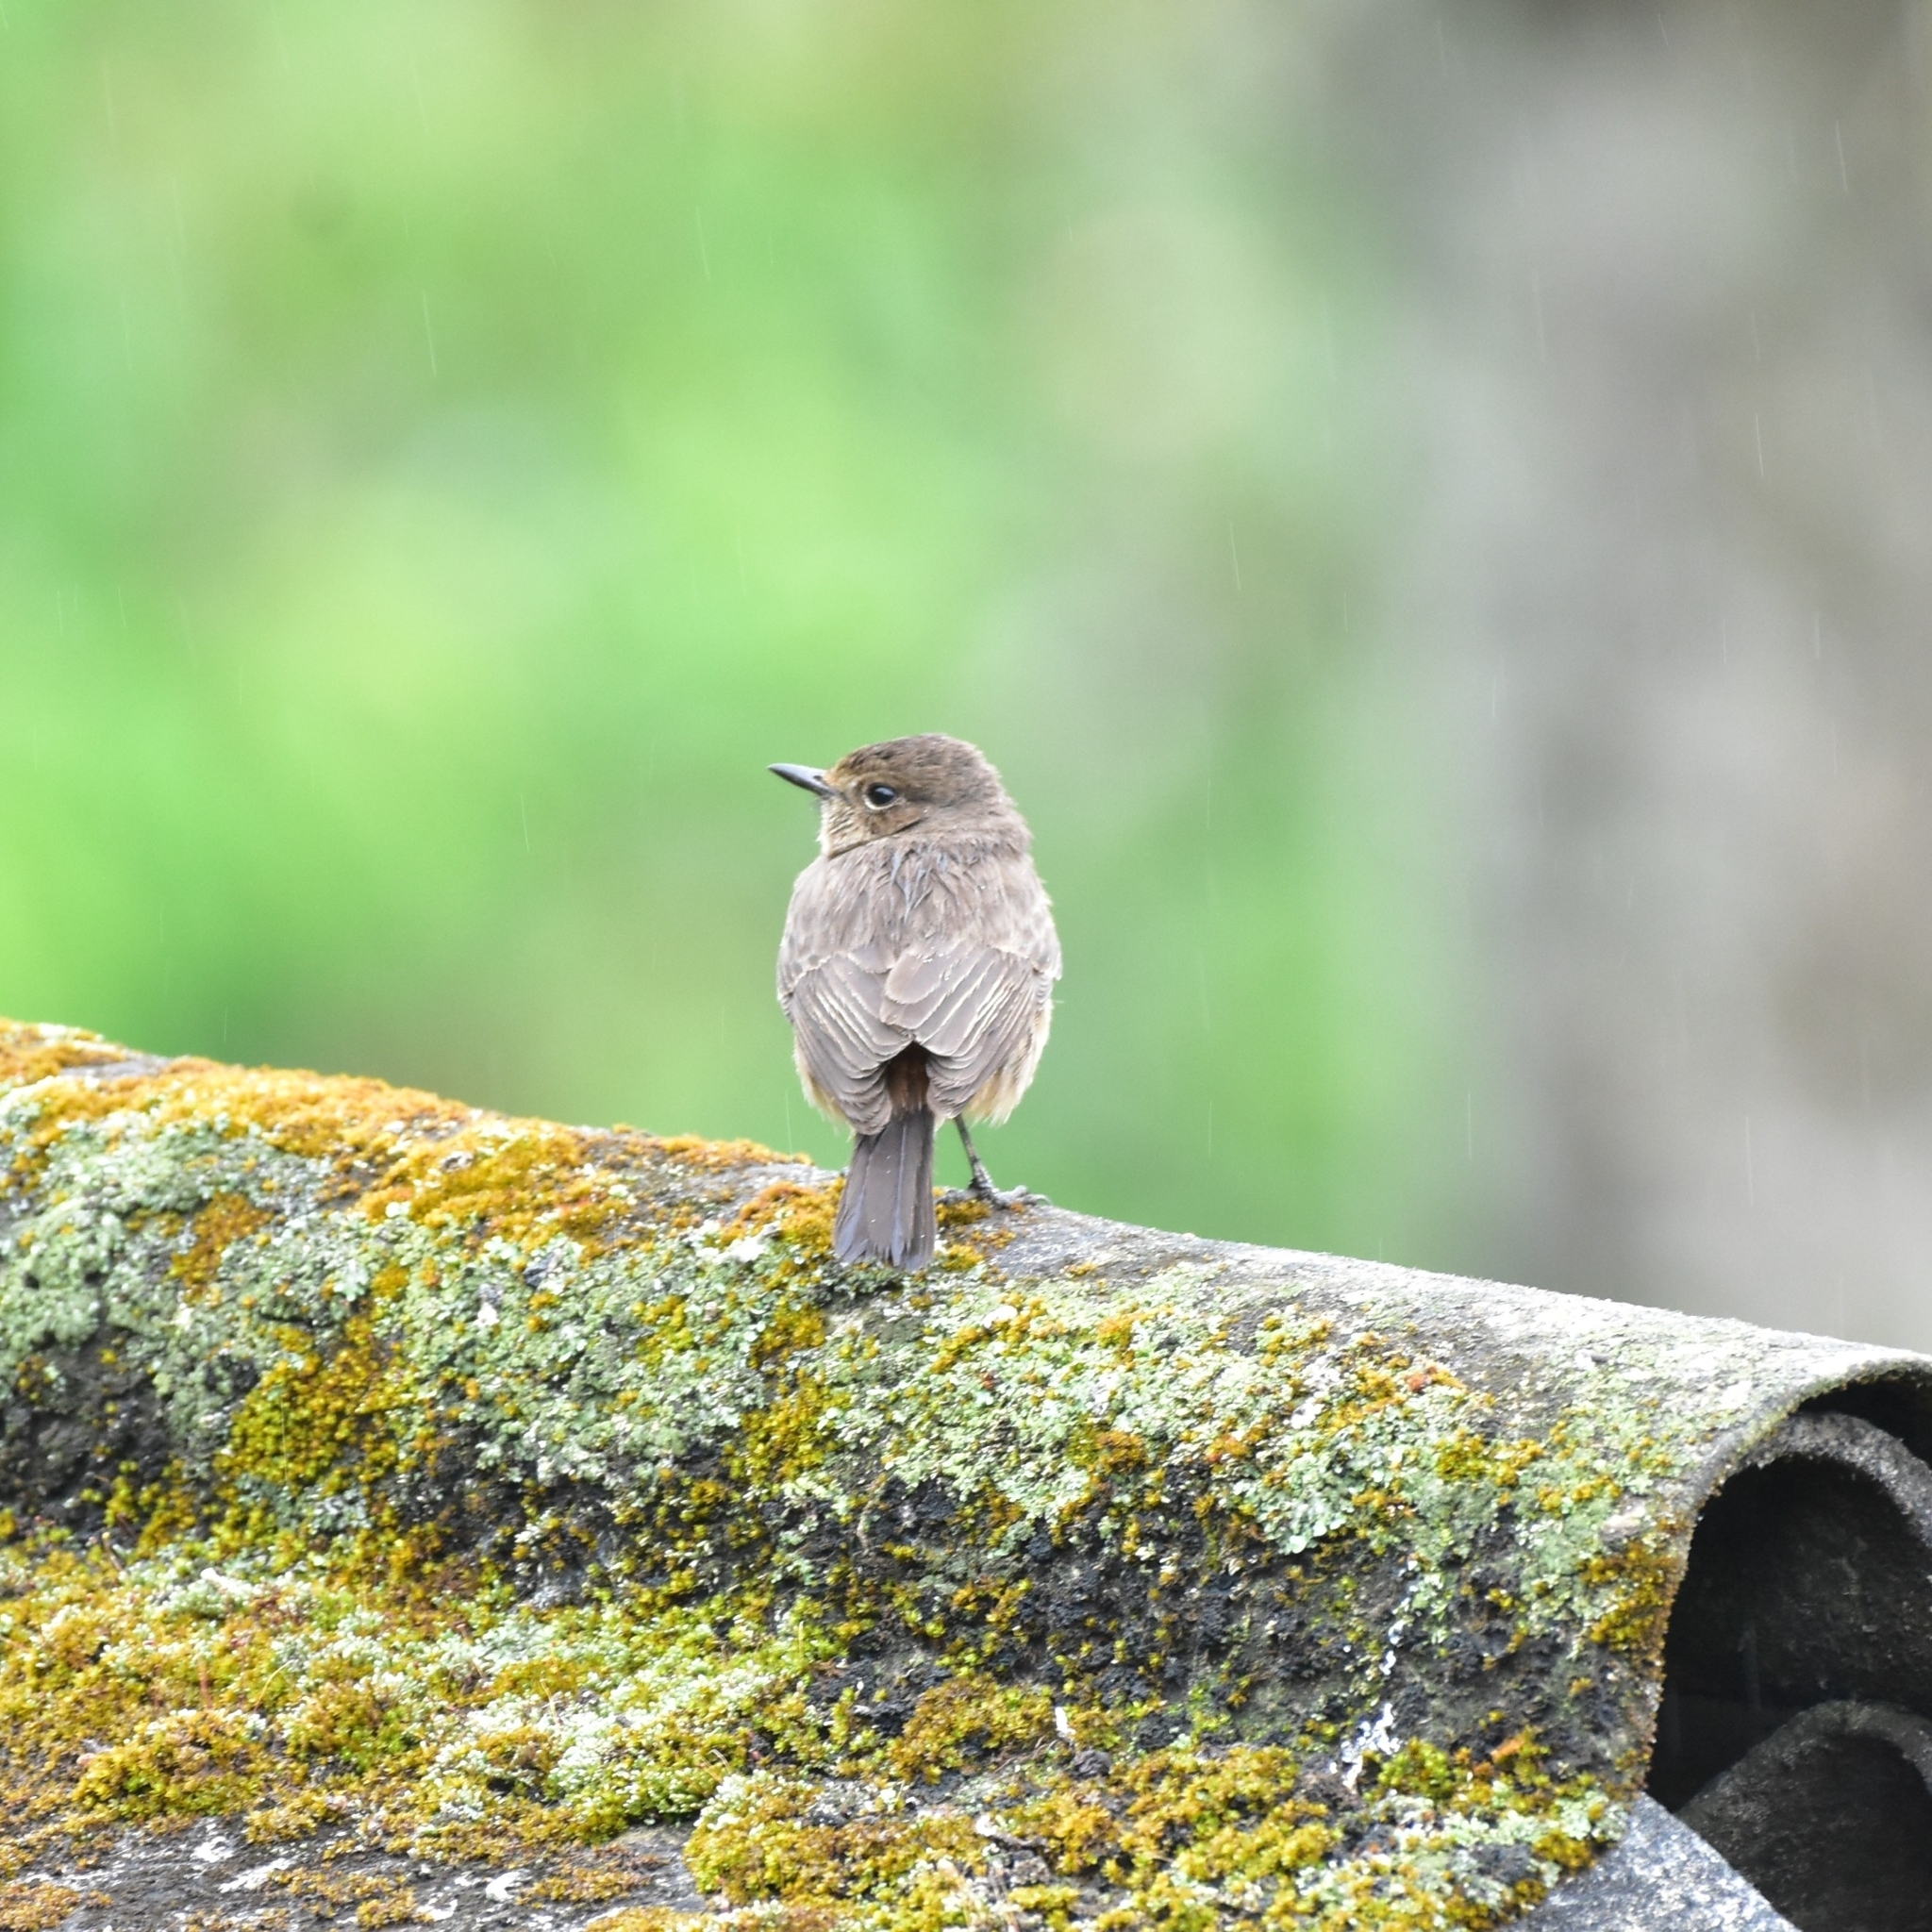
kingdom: Animalia
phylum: Chordata
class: Aves
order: Passeriformes
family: Muscicapidae
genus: Saxicola
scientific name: Saxicola caprata
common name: Pied bush chat
